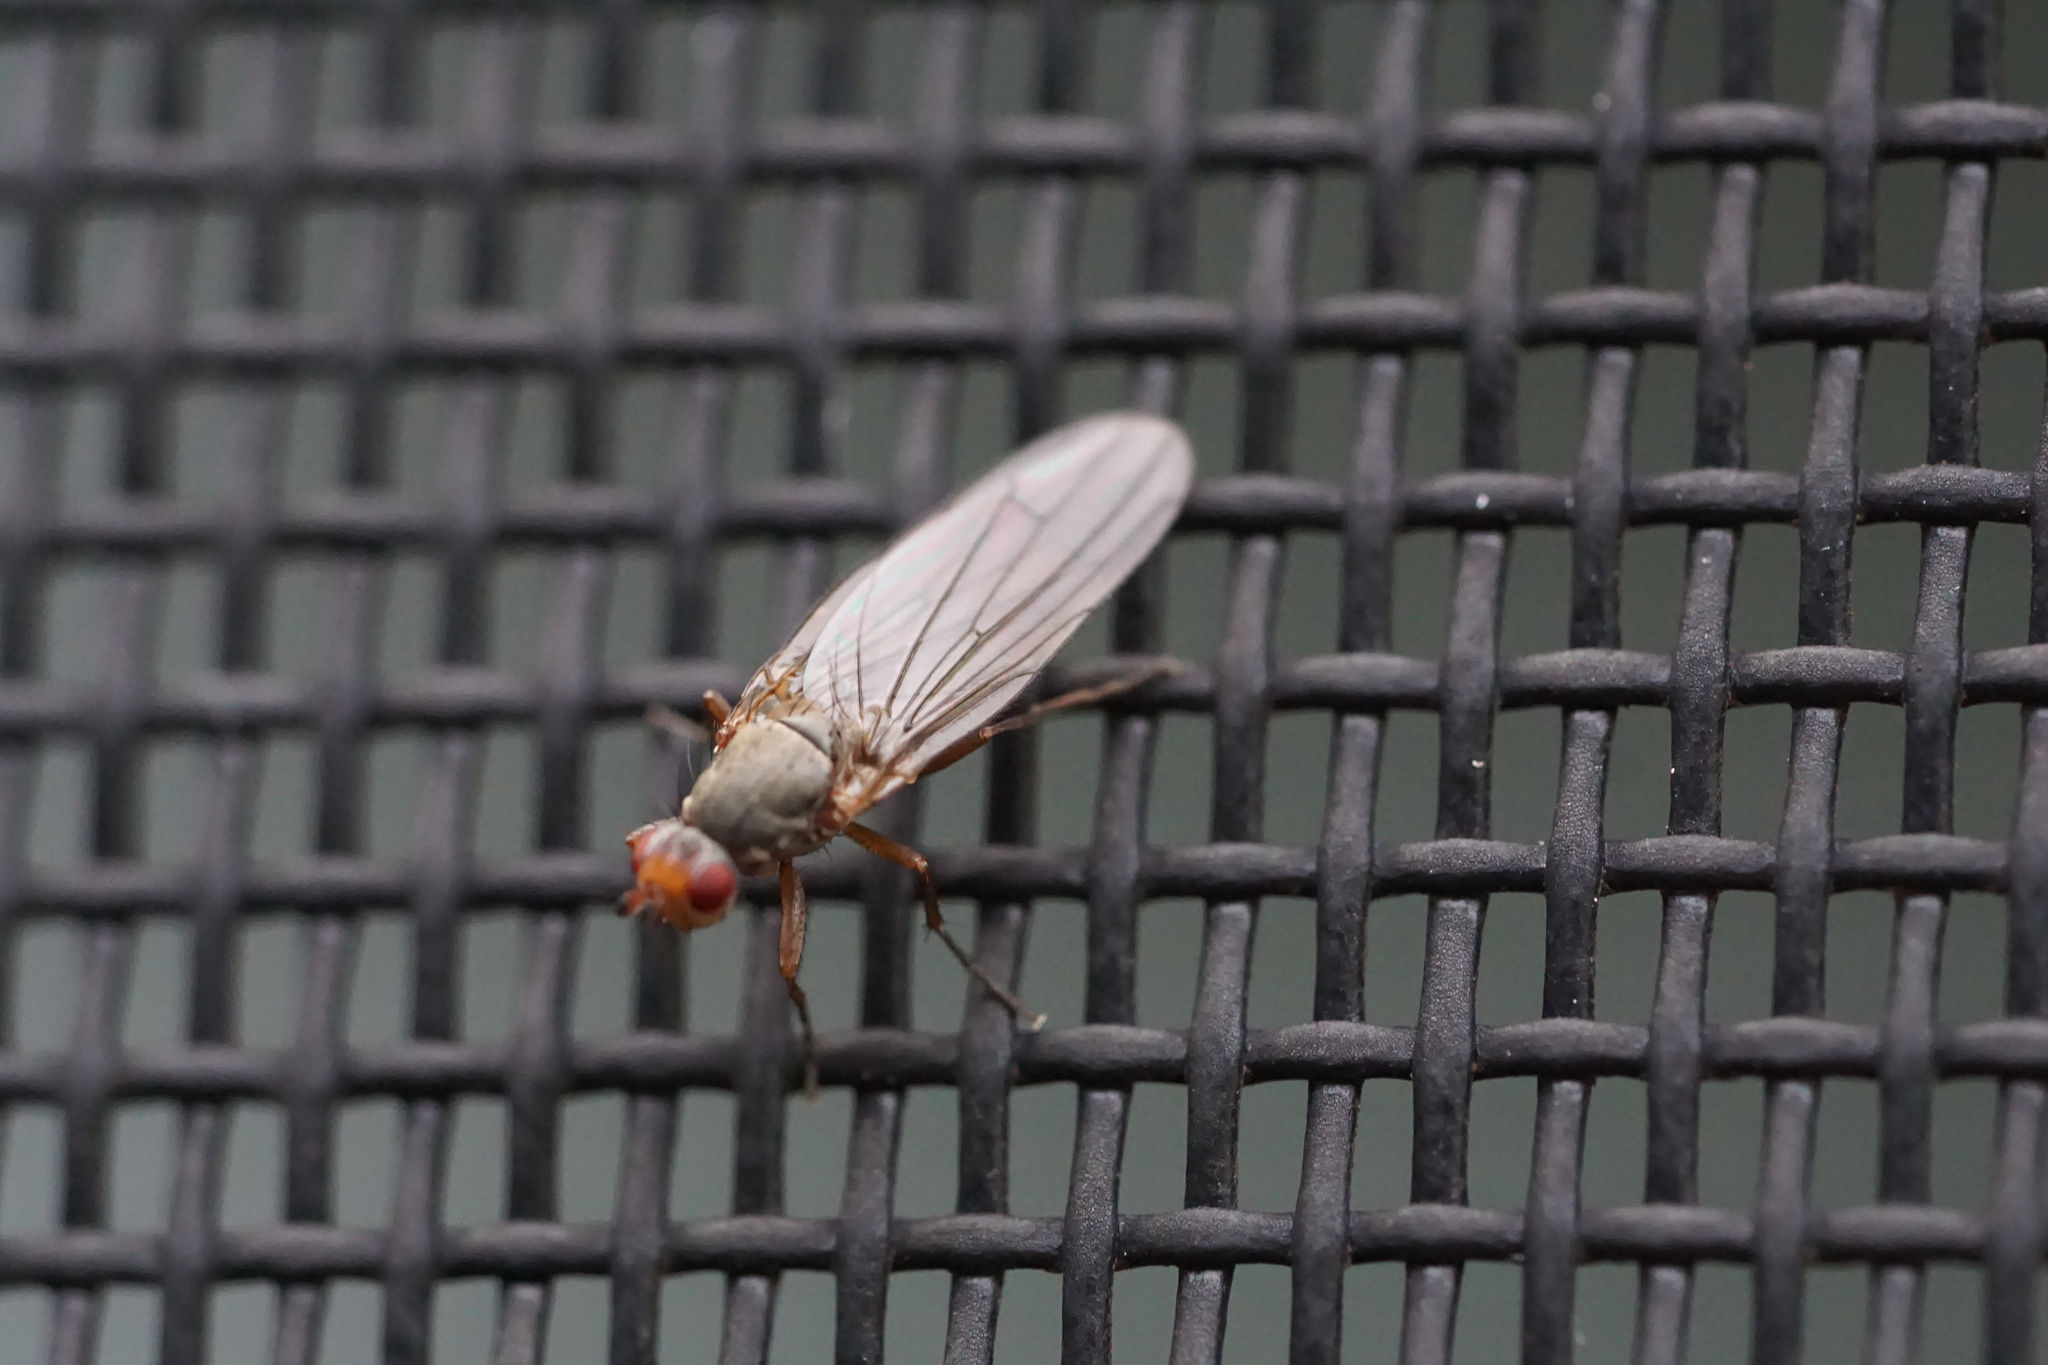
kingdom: Animalia
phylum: Arthropoda
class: Insecta
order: Diptera
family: Heleomyzidae
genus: Orbellia
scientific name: Orbellia barbata
